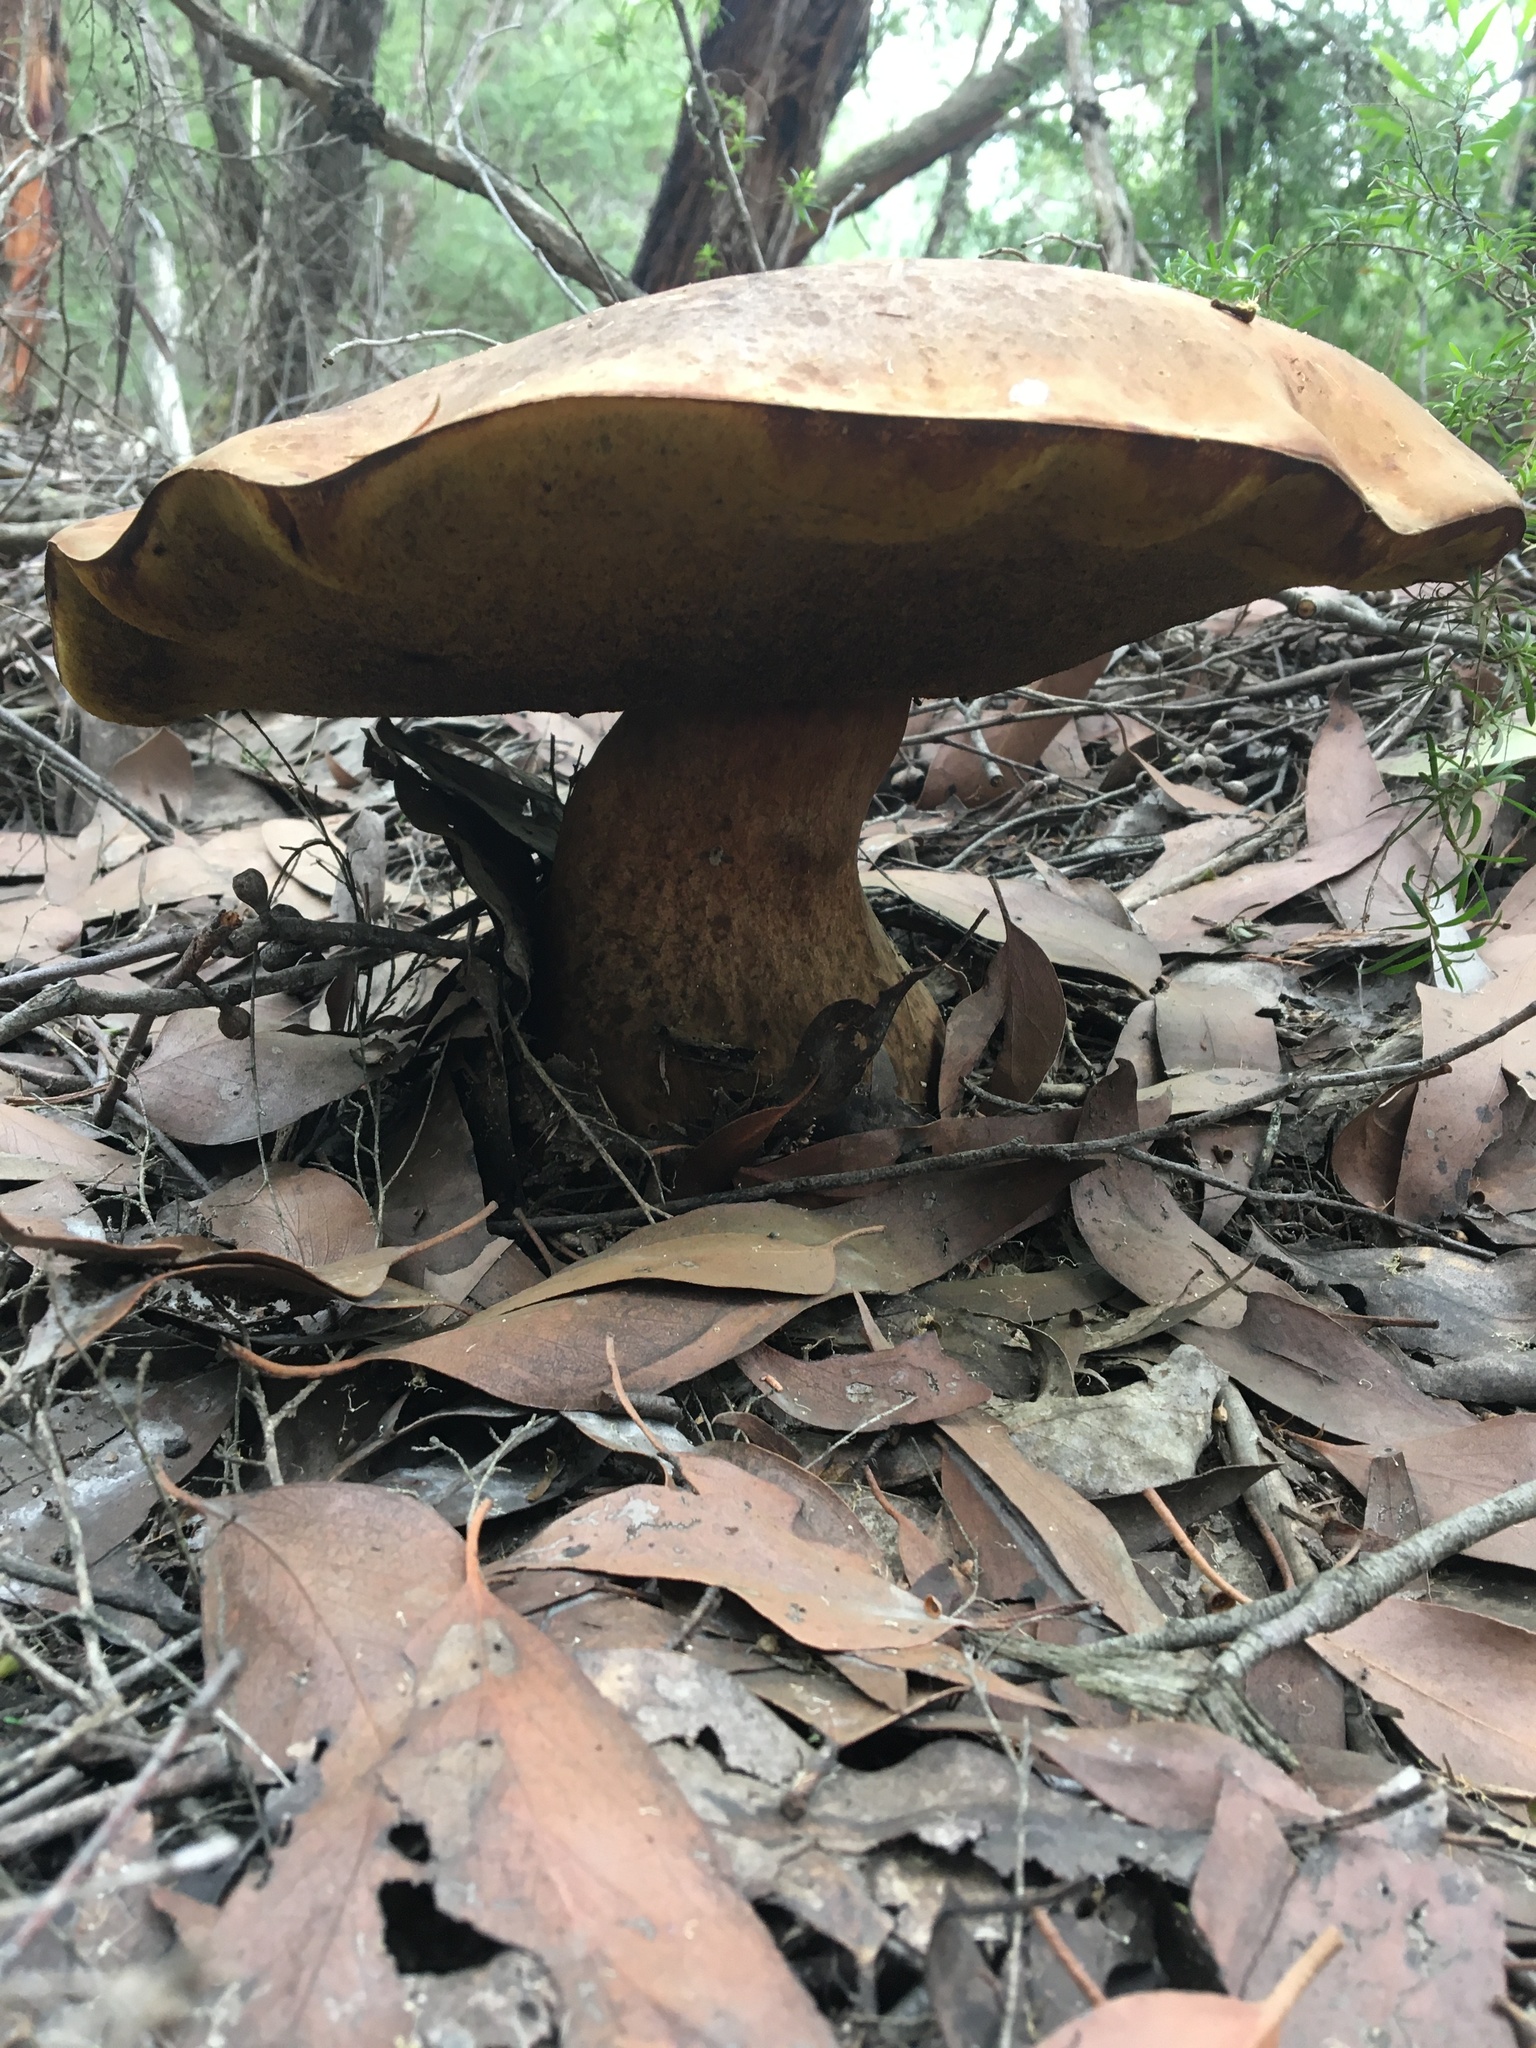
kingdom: Fungi
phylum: Basidiomycota
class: Agaricomycetes
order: Boletales
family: Boletinellaceae
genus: Phlebopus
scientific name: Phlebopus marginatus
